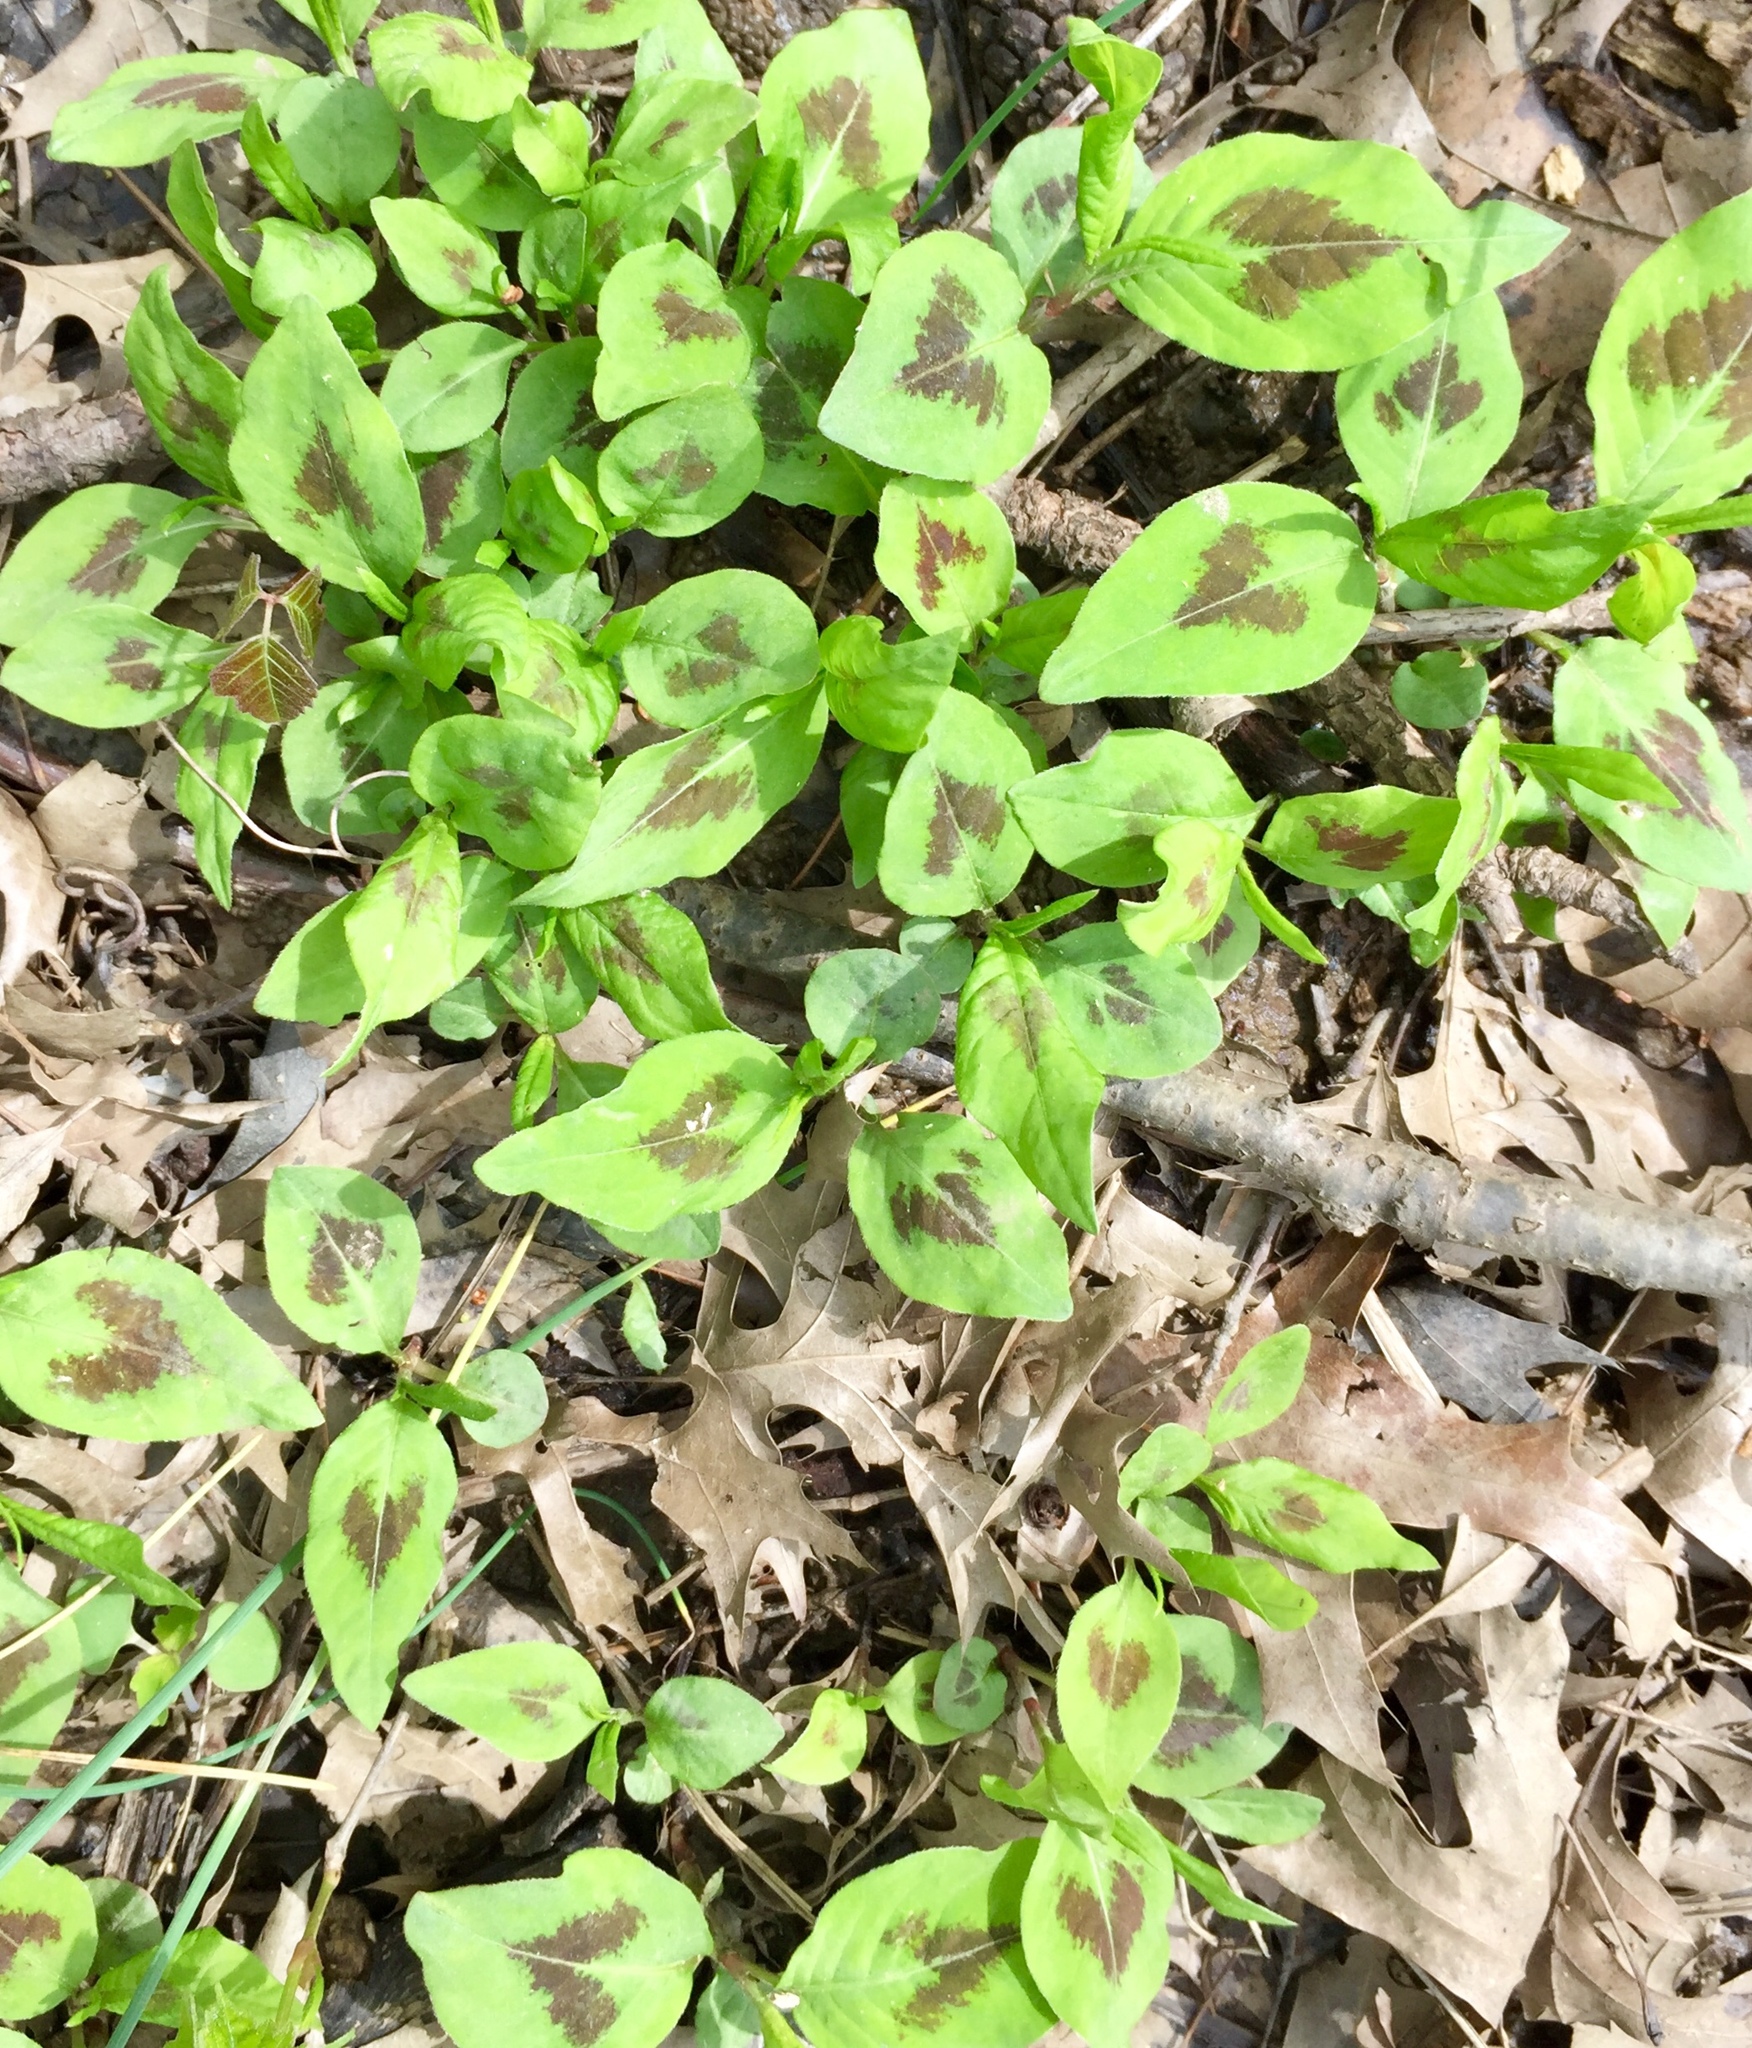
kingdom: Plantae
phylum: Tracheophyta
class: Magnoliopsida
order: Caryophyllales
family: Polygonaceae
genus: Persicaria
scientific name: Persicaria virginiana
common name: Jumpseed
